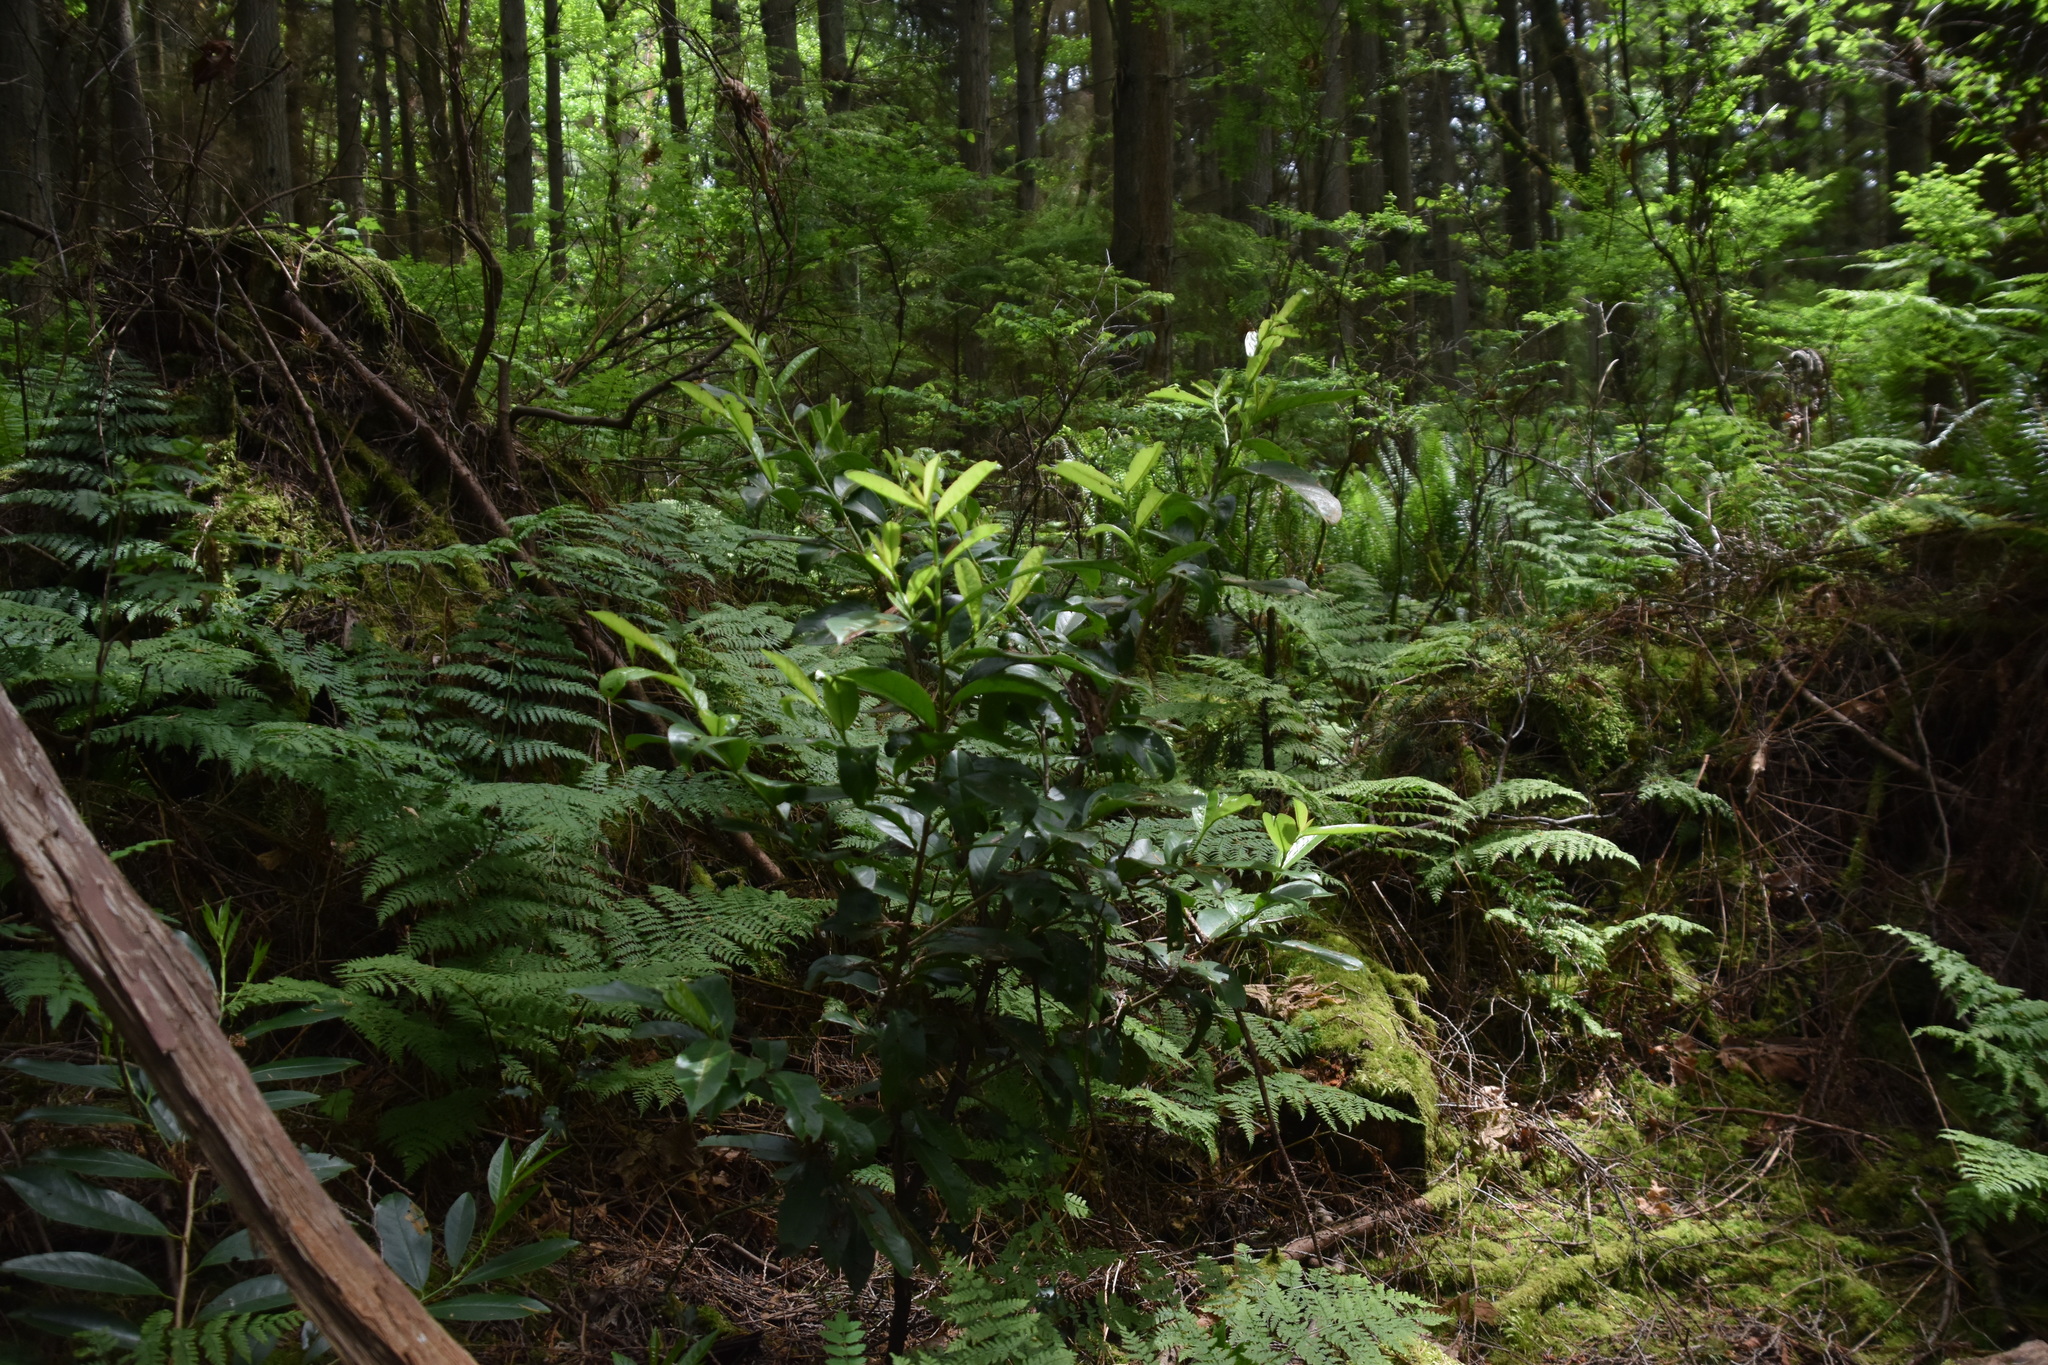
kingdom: Plantae
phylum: Tracheophyta
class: Magnoliopsida
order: Rosales
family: Rosaceae
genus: Prunus
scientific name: Prunus laurocerasus
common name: Cherry laurel
